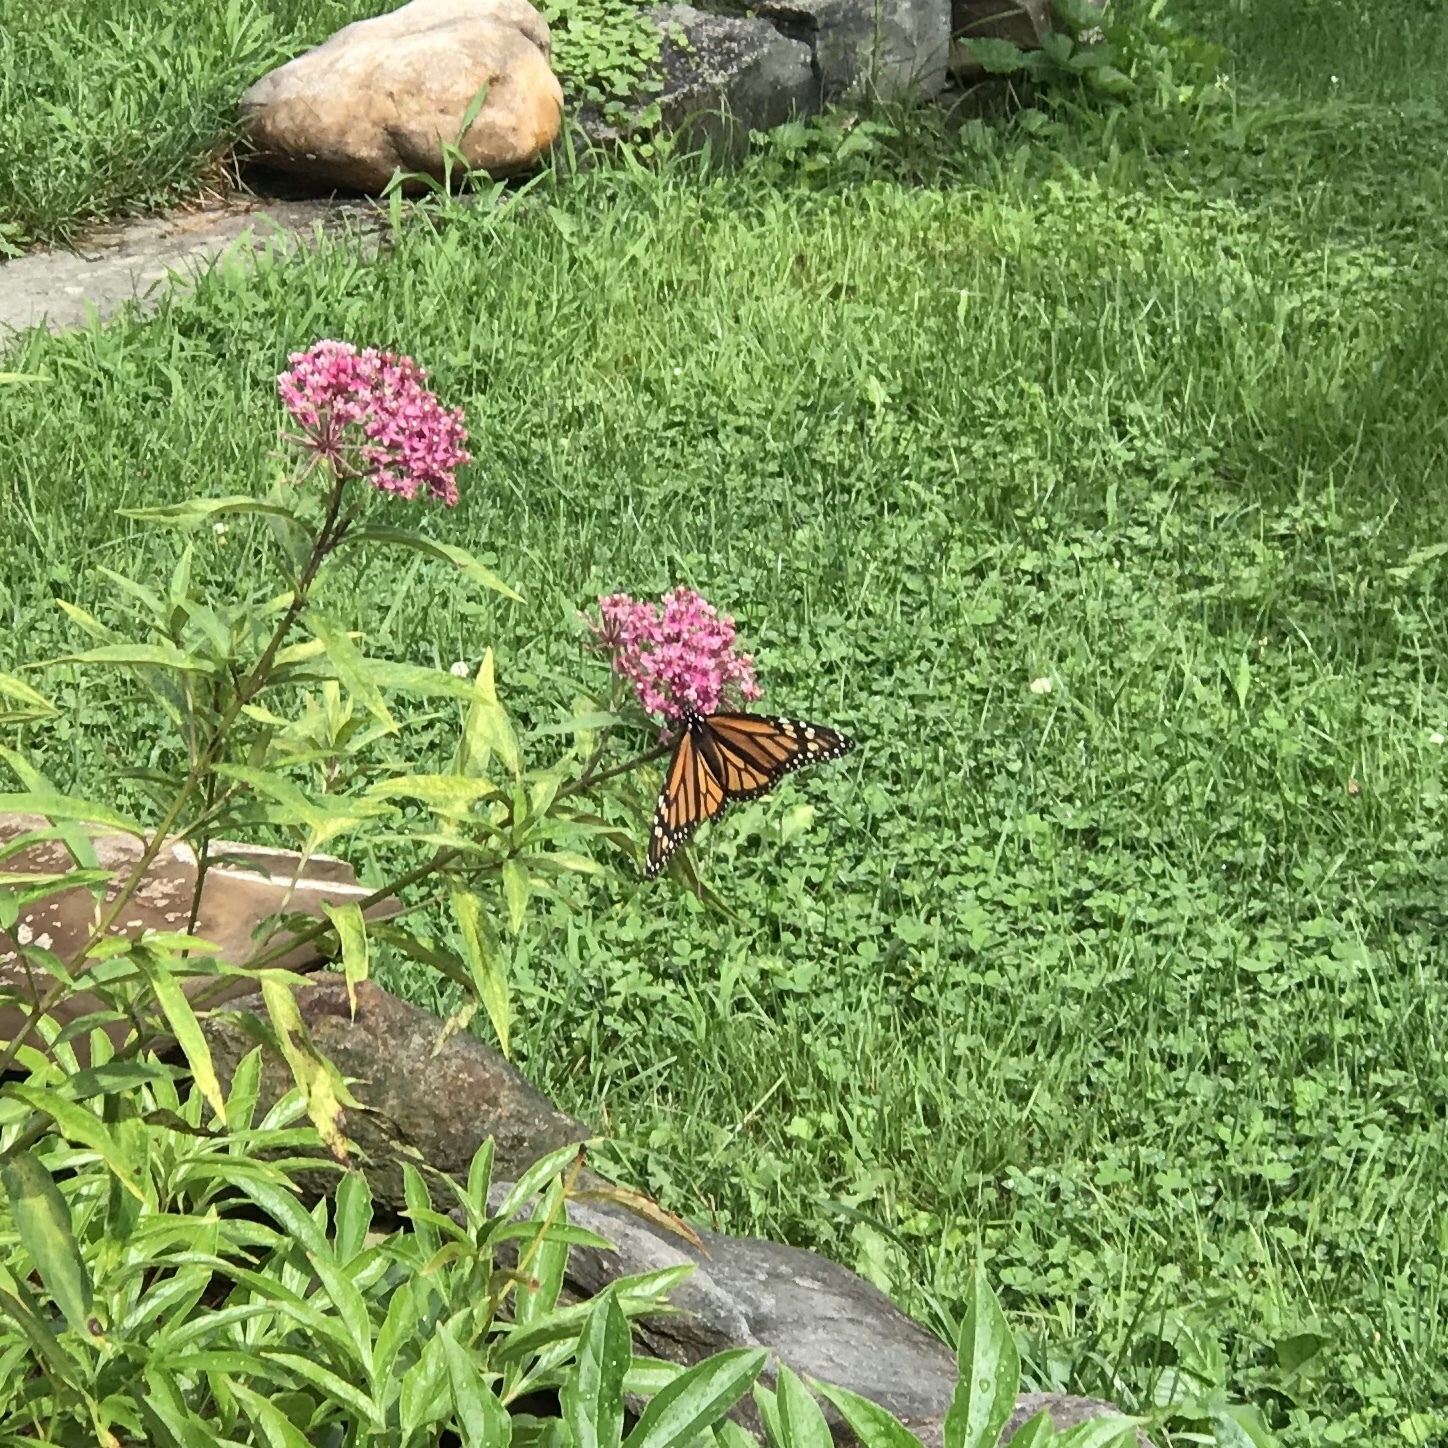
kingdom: Animalia
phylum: Arthropoda
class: Insecta
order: Lepidoptera
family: Nymphalidae
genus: Danaus
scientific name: Danaus plexippus
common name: Monarch
